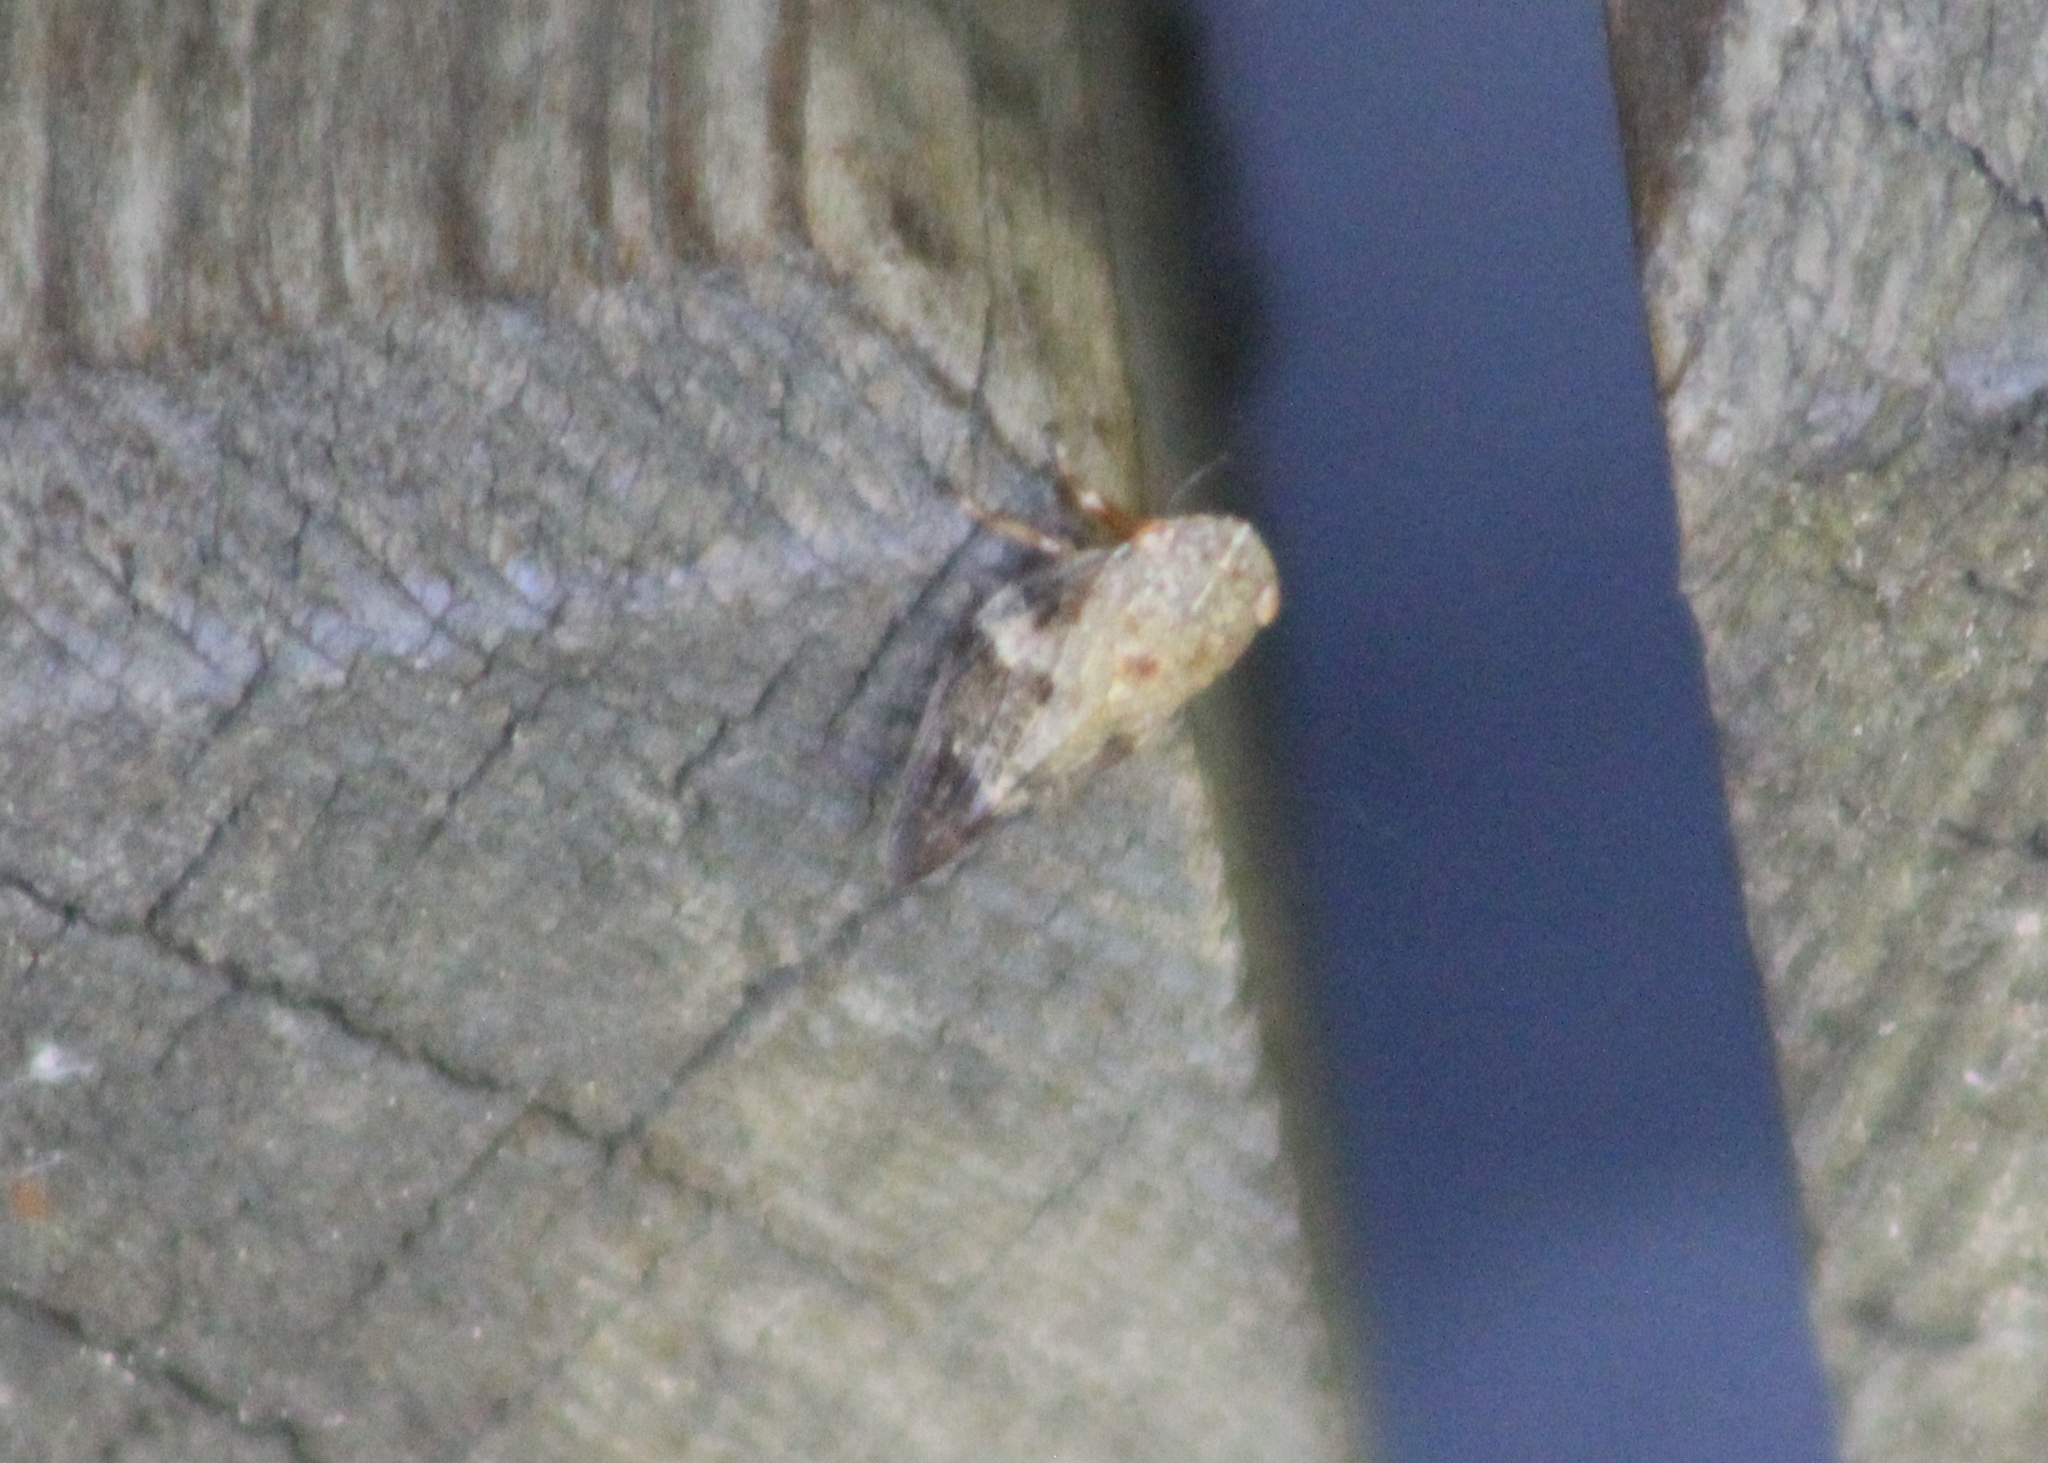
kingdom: Animalia
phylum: Arthropoda
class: Insecta
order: Hemiptera
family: Aphrophoridae
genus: Aphrophora
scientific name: Aphrophora alni
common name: European alder spittlebug
